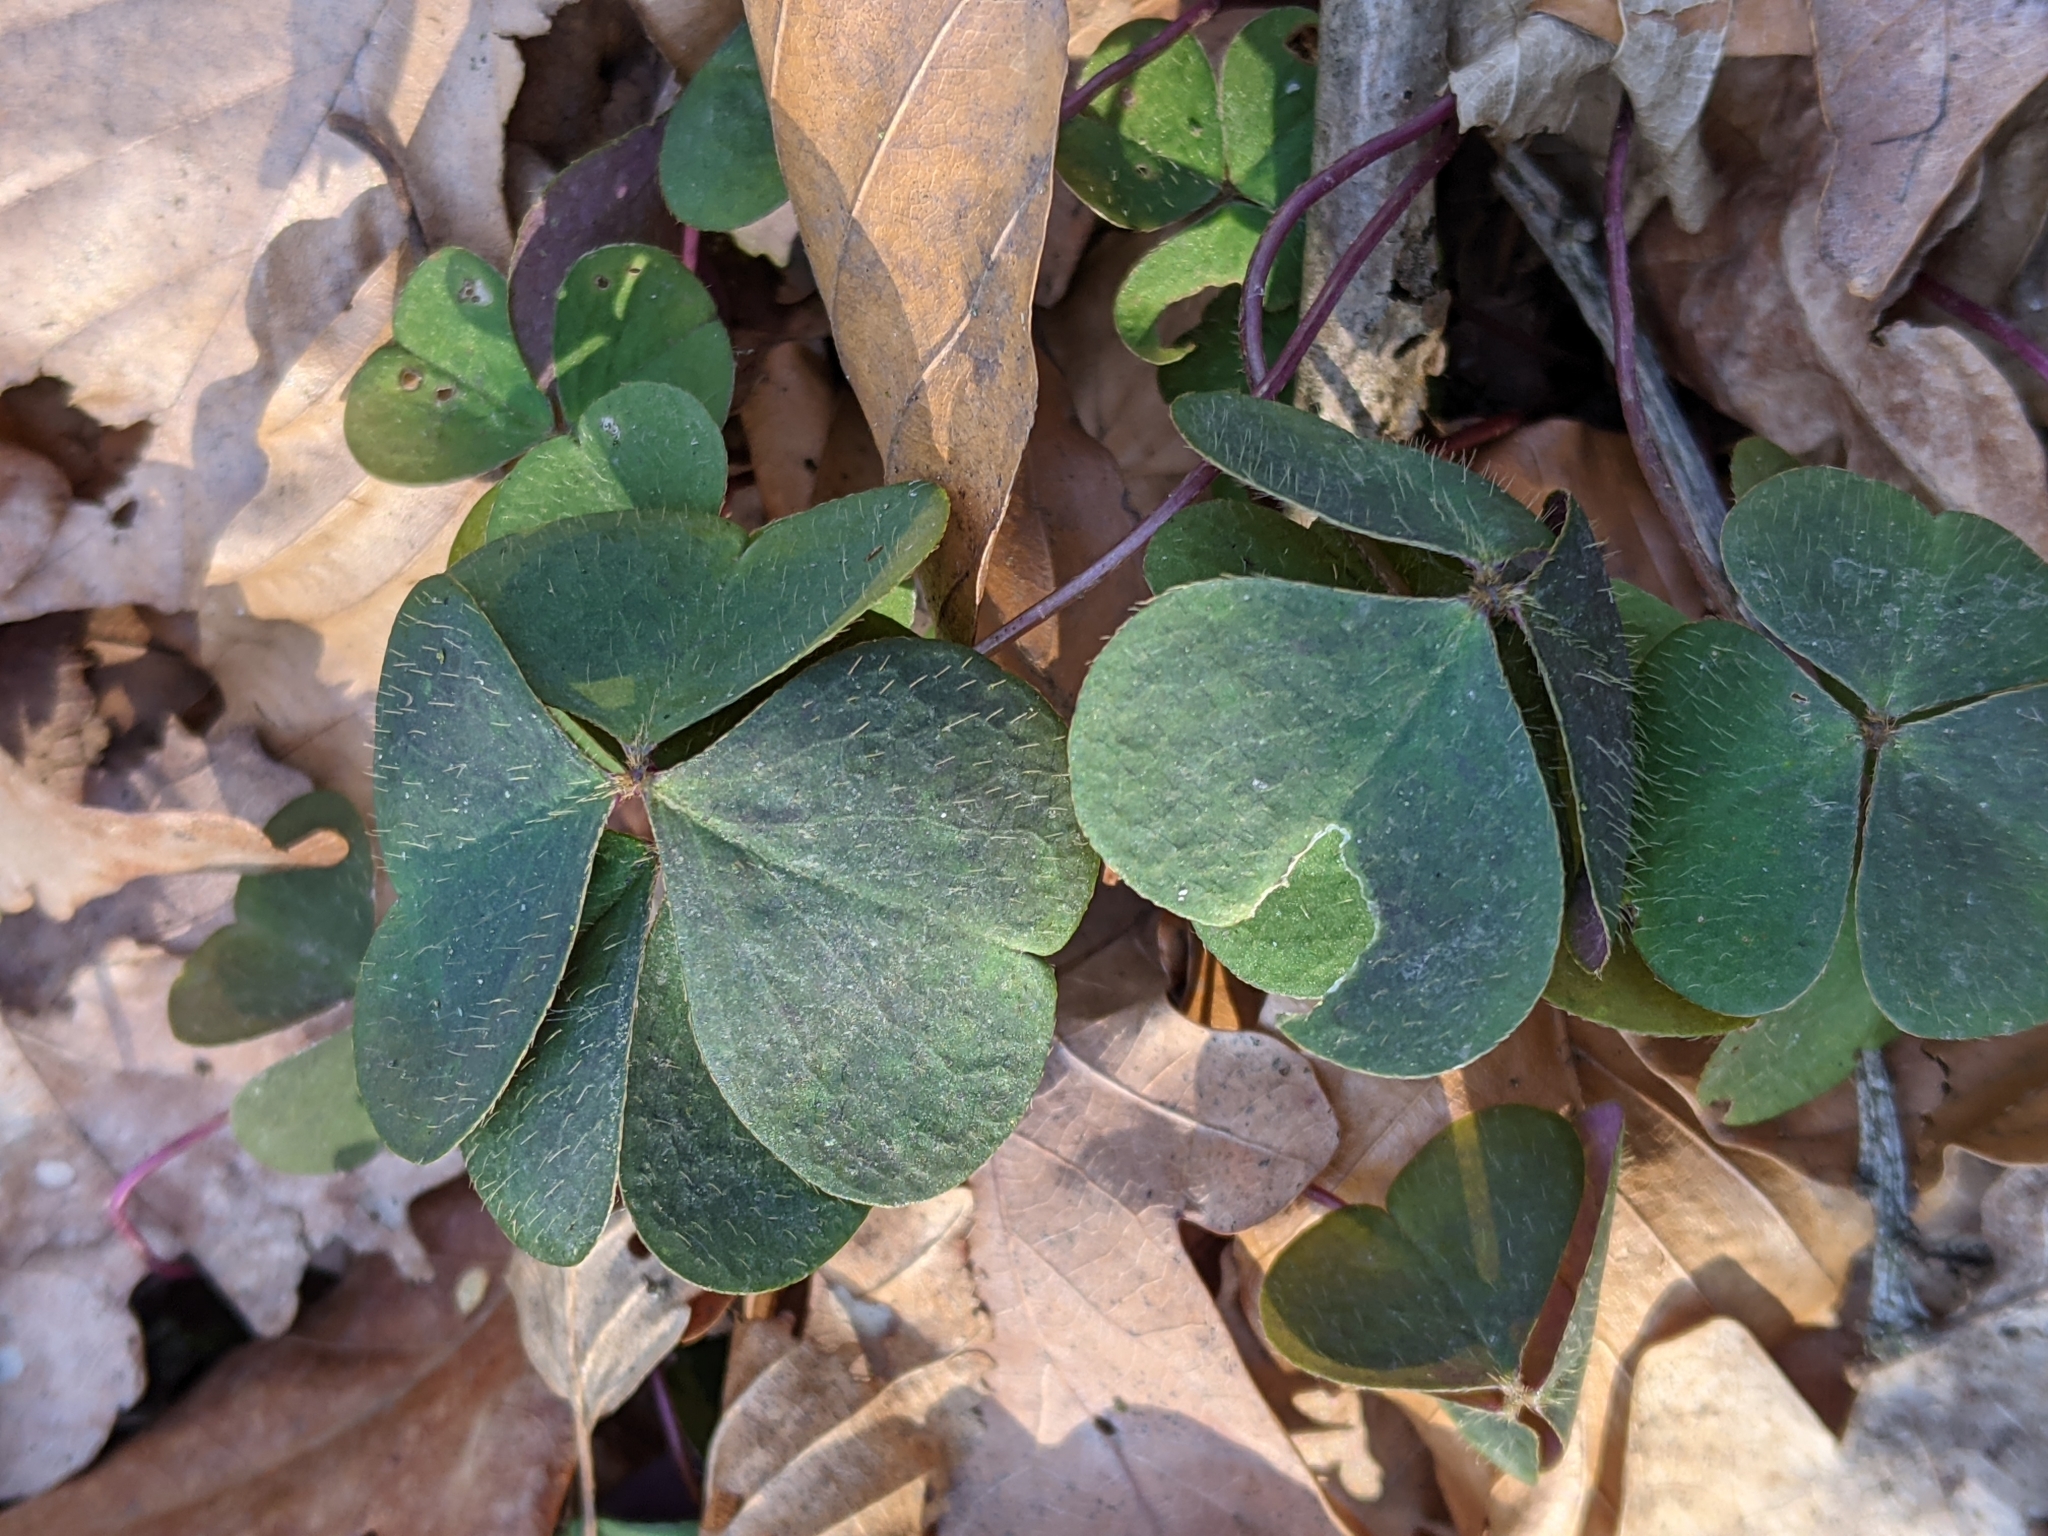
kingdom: Plantae
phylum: Tracheophyta
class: Magnoliopsida
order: Oxalidales
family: Oxalidaceae
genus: Oxalis
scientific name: Oxalis acetosella
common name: Wood-sorrel
